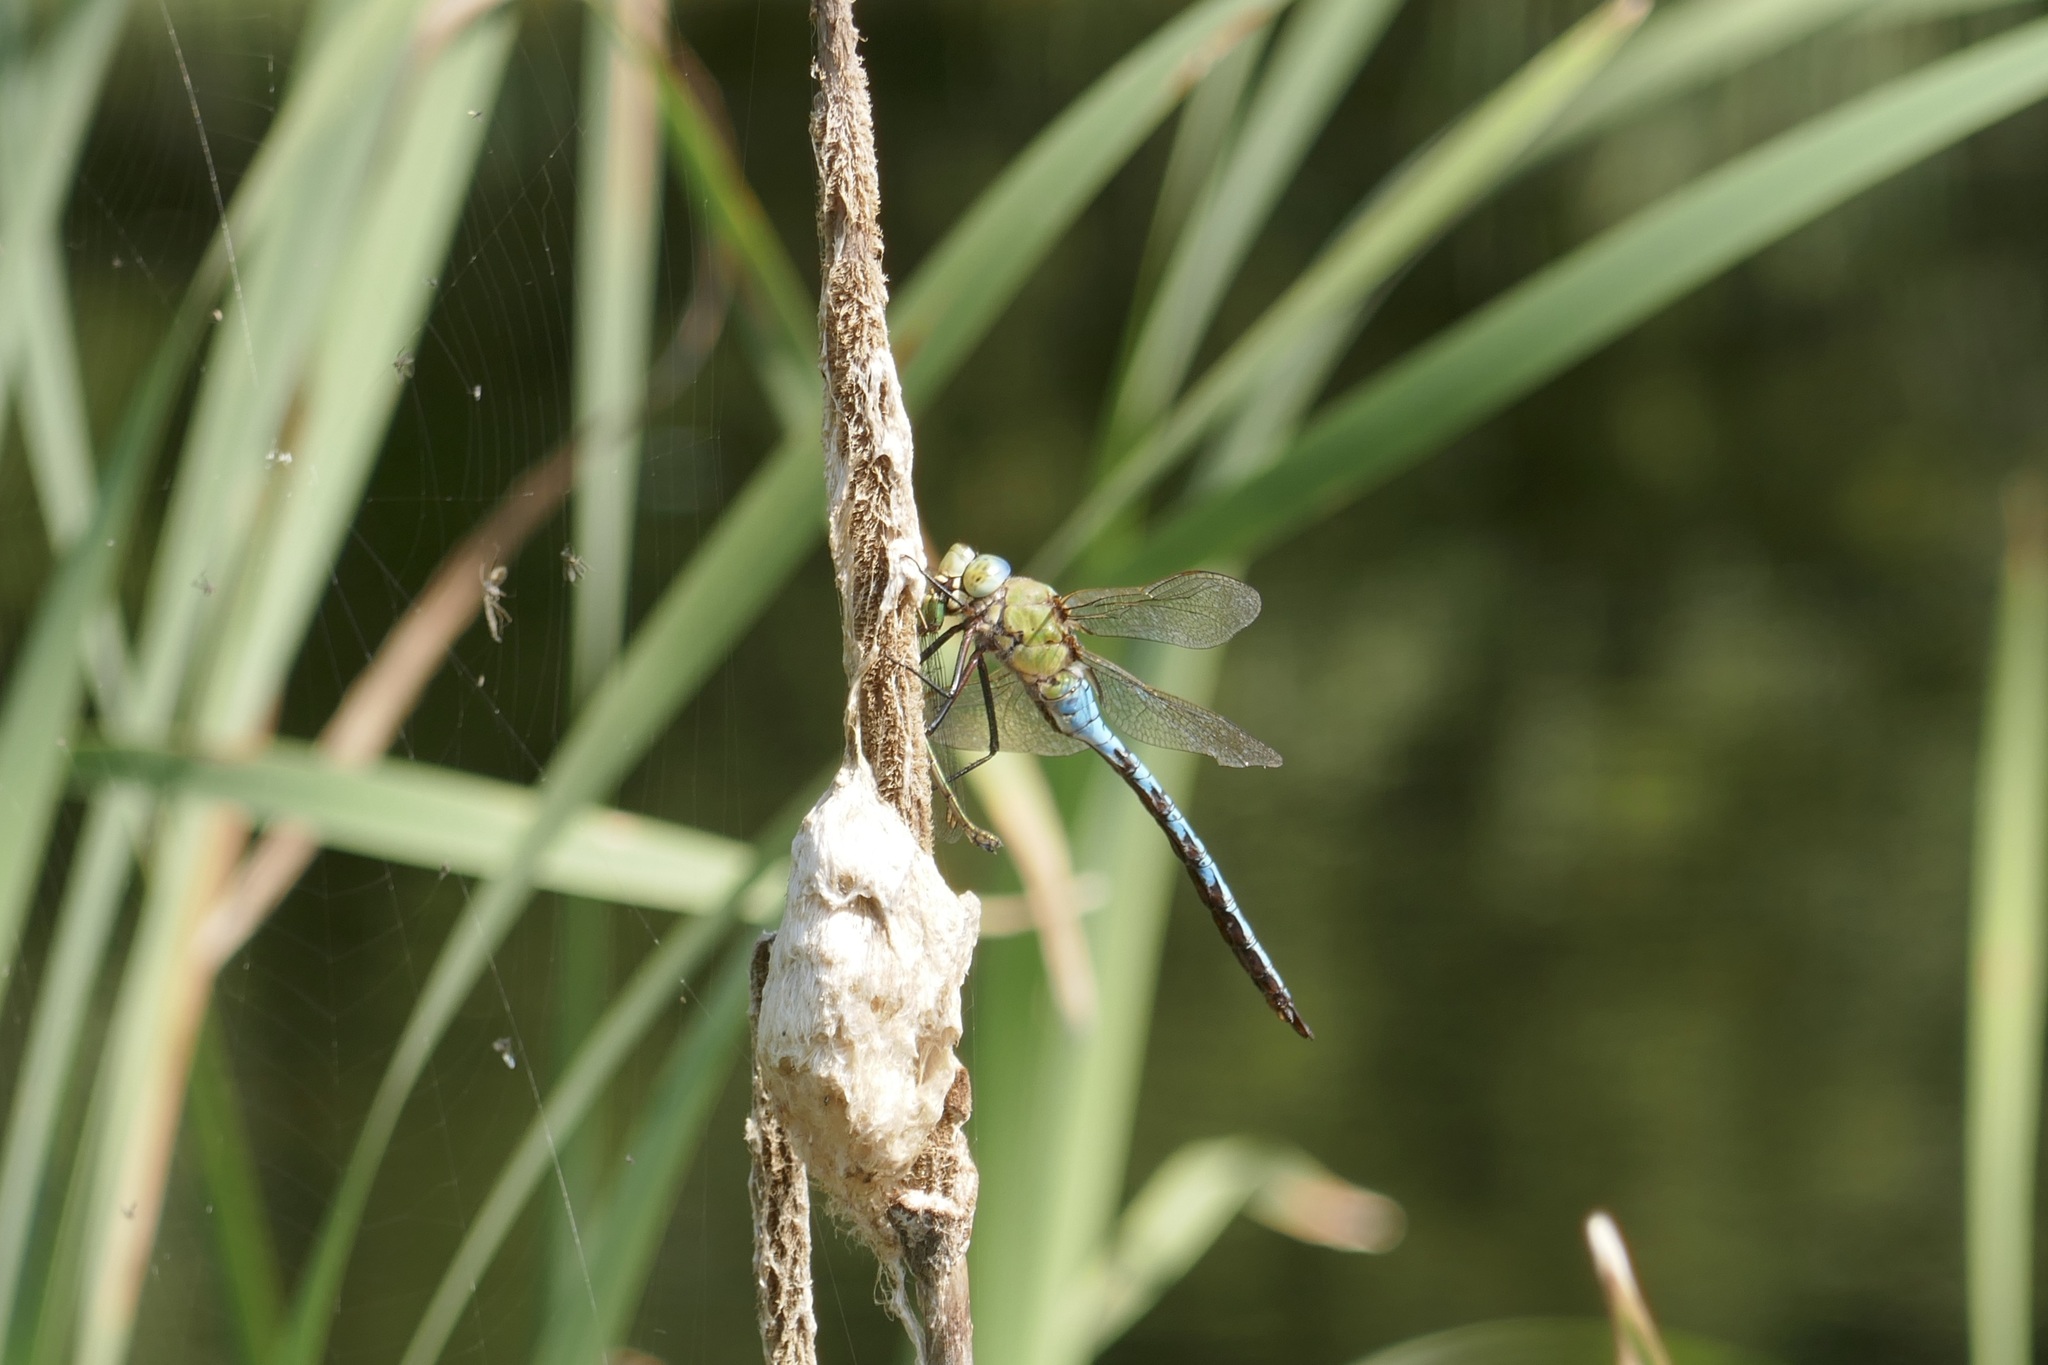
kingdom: Animalia
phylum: Arthropoda
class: Insecta
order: Odonata
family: Aeshnidae
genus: Anax
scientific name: Anax imperator
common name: Emperor dragonfly
